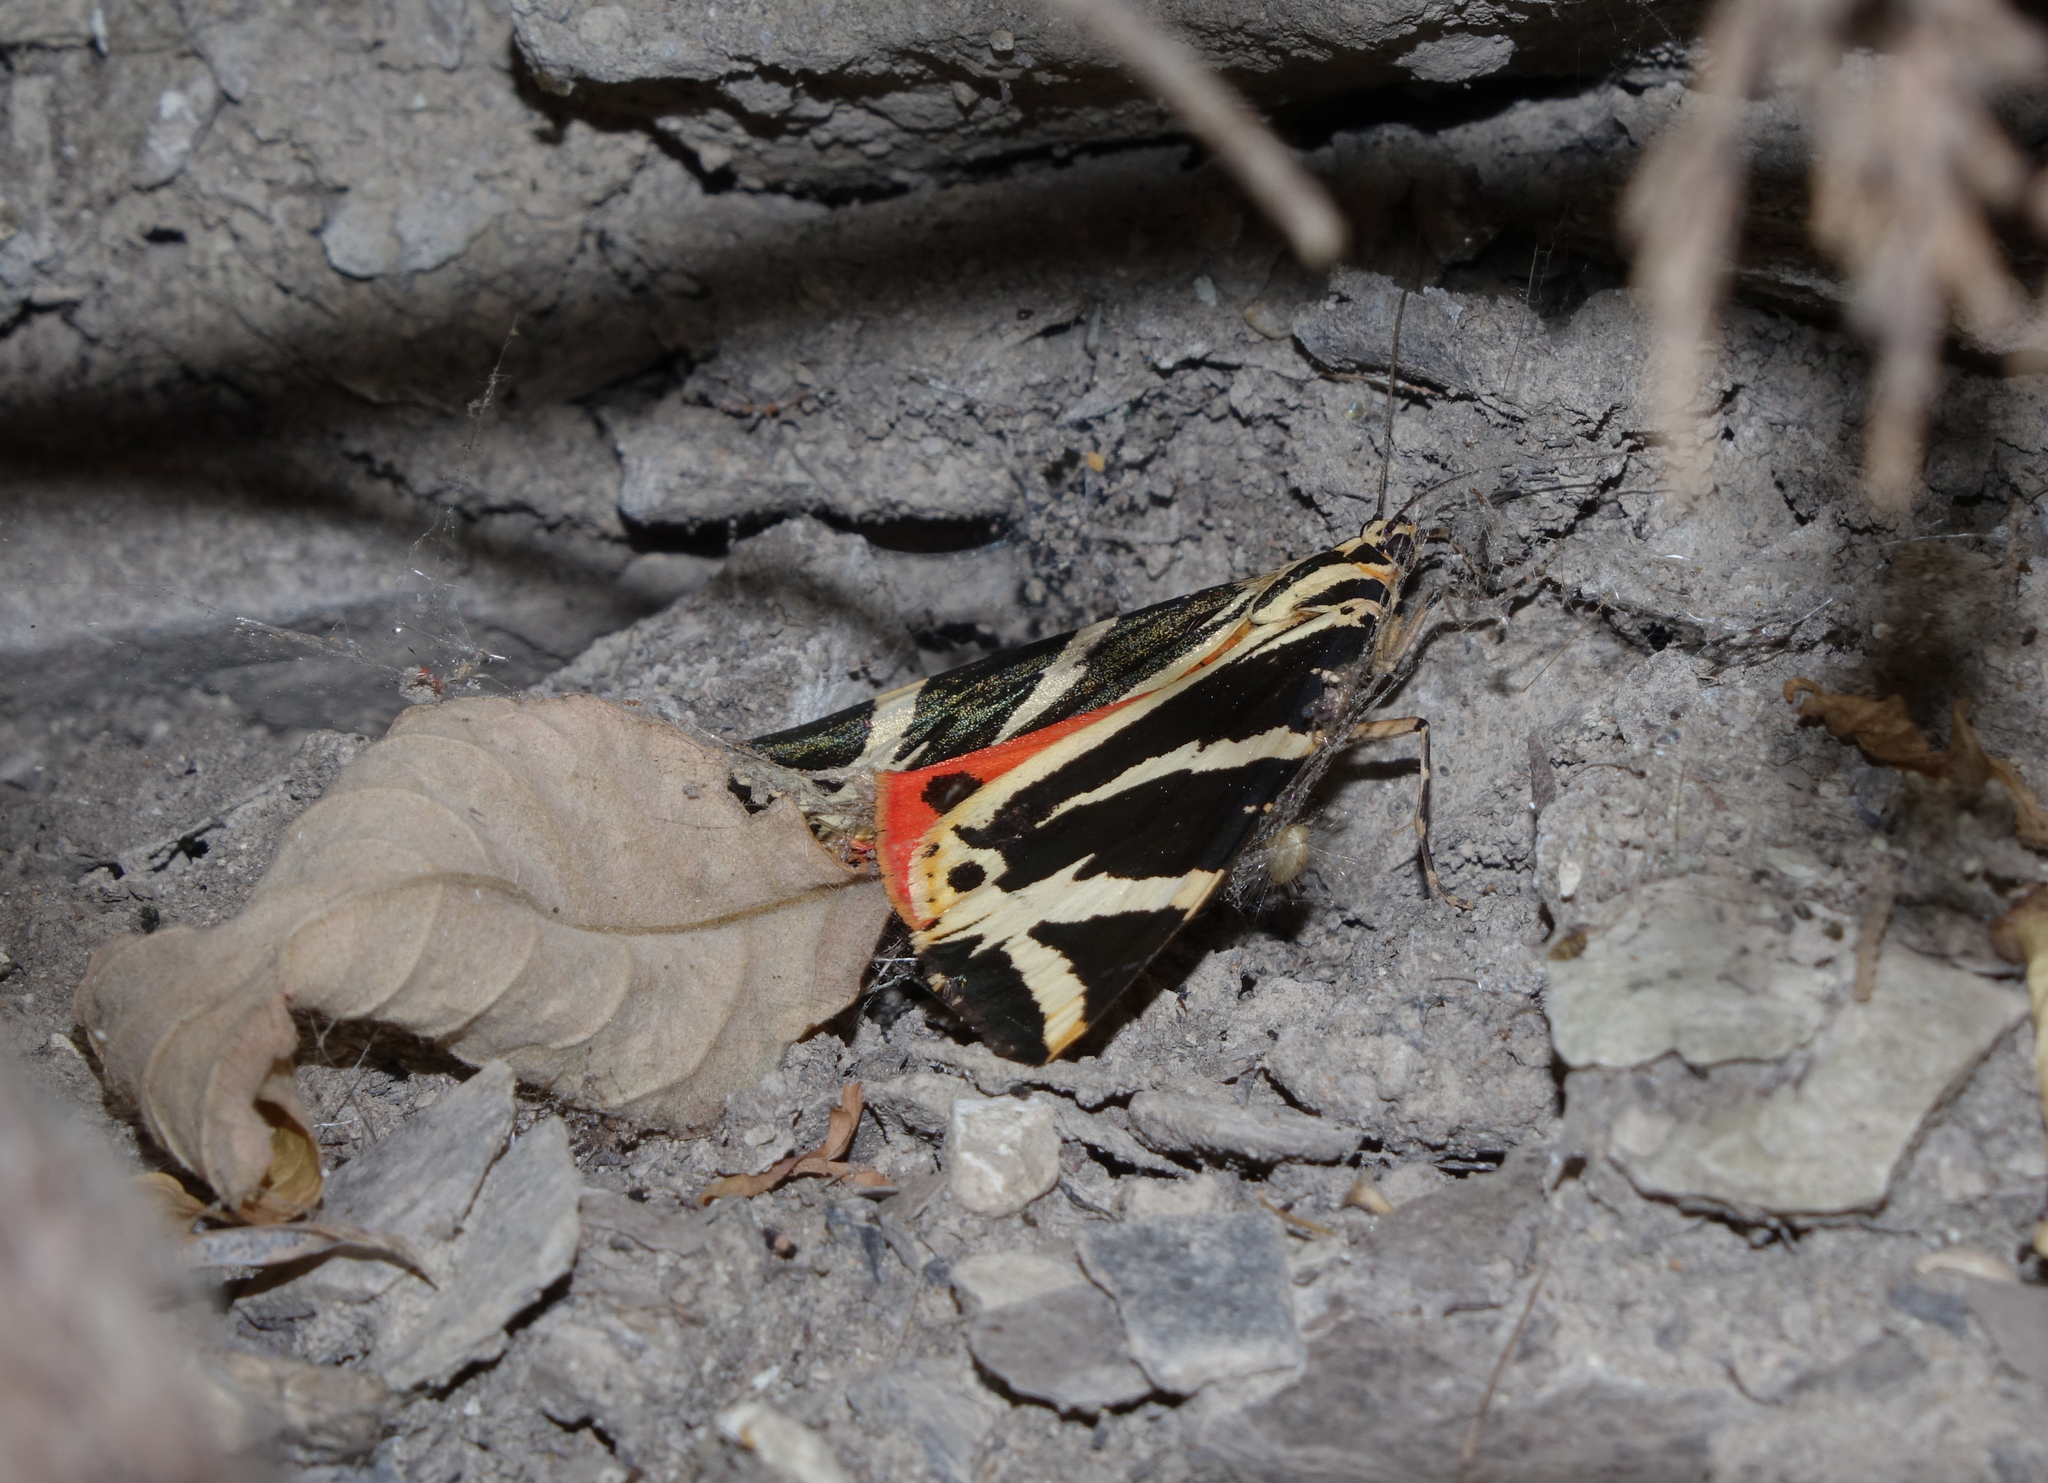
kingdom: Animalia
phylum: Arthropoda
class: Insecta
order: Lepidoptera
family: Erebidae
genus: Euplagia
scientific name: Euplagia quadripunctaria
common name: Jersey tiger
